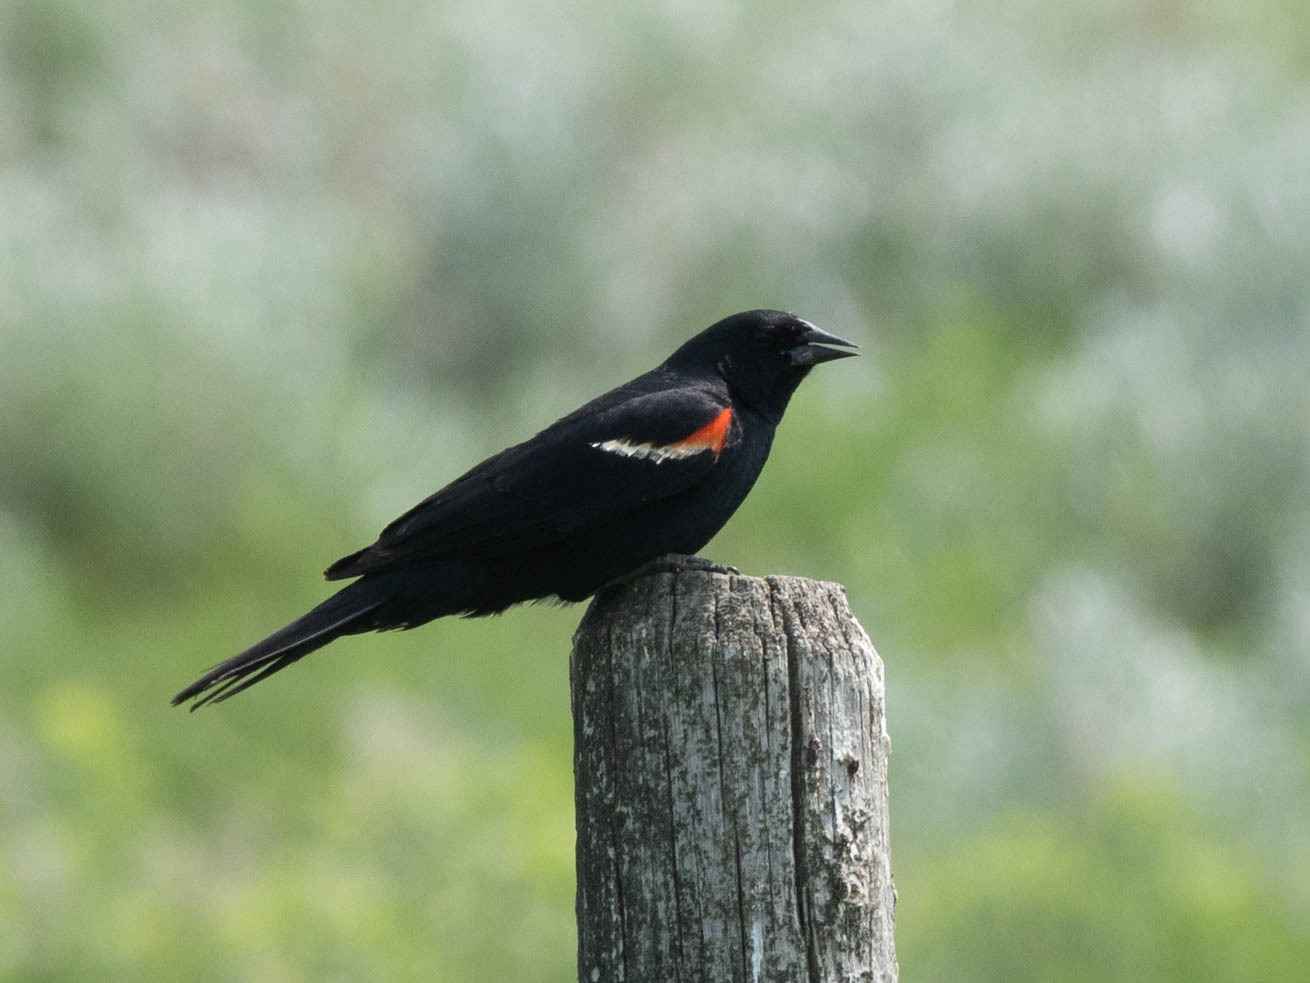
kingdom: Animalia
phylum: Chordata
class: Aves
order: Passeriformes
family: Icteridae
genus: Agelaius
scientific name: Agelaius phoeniceus
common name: Red-winged blackbird
